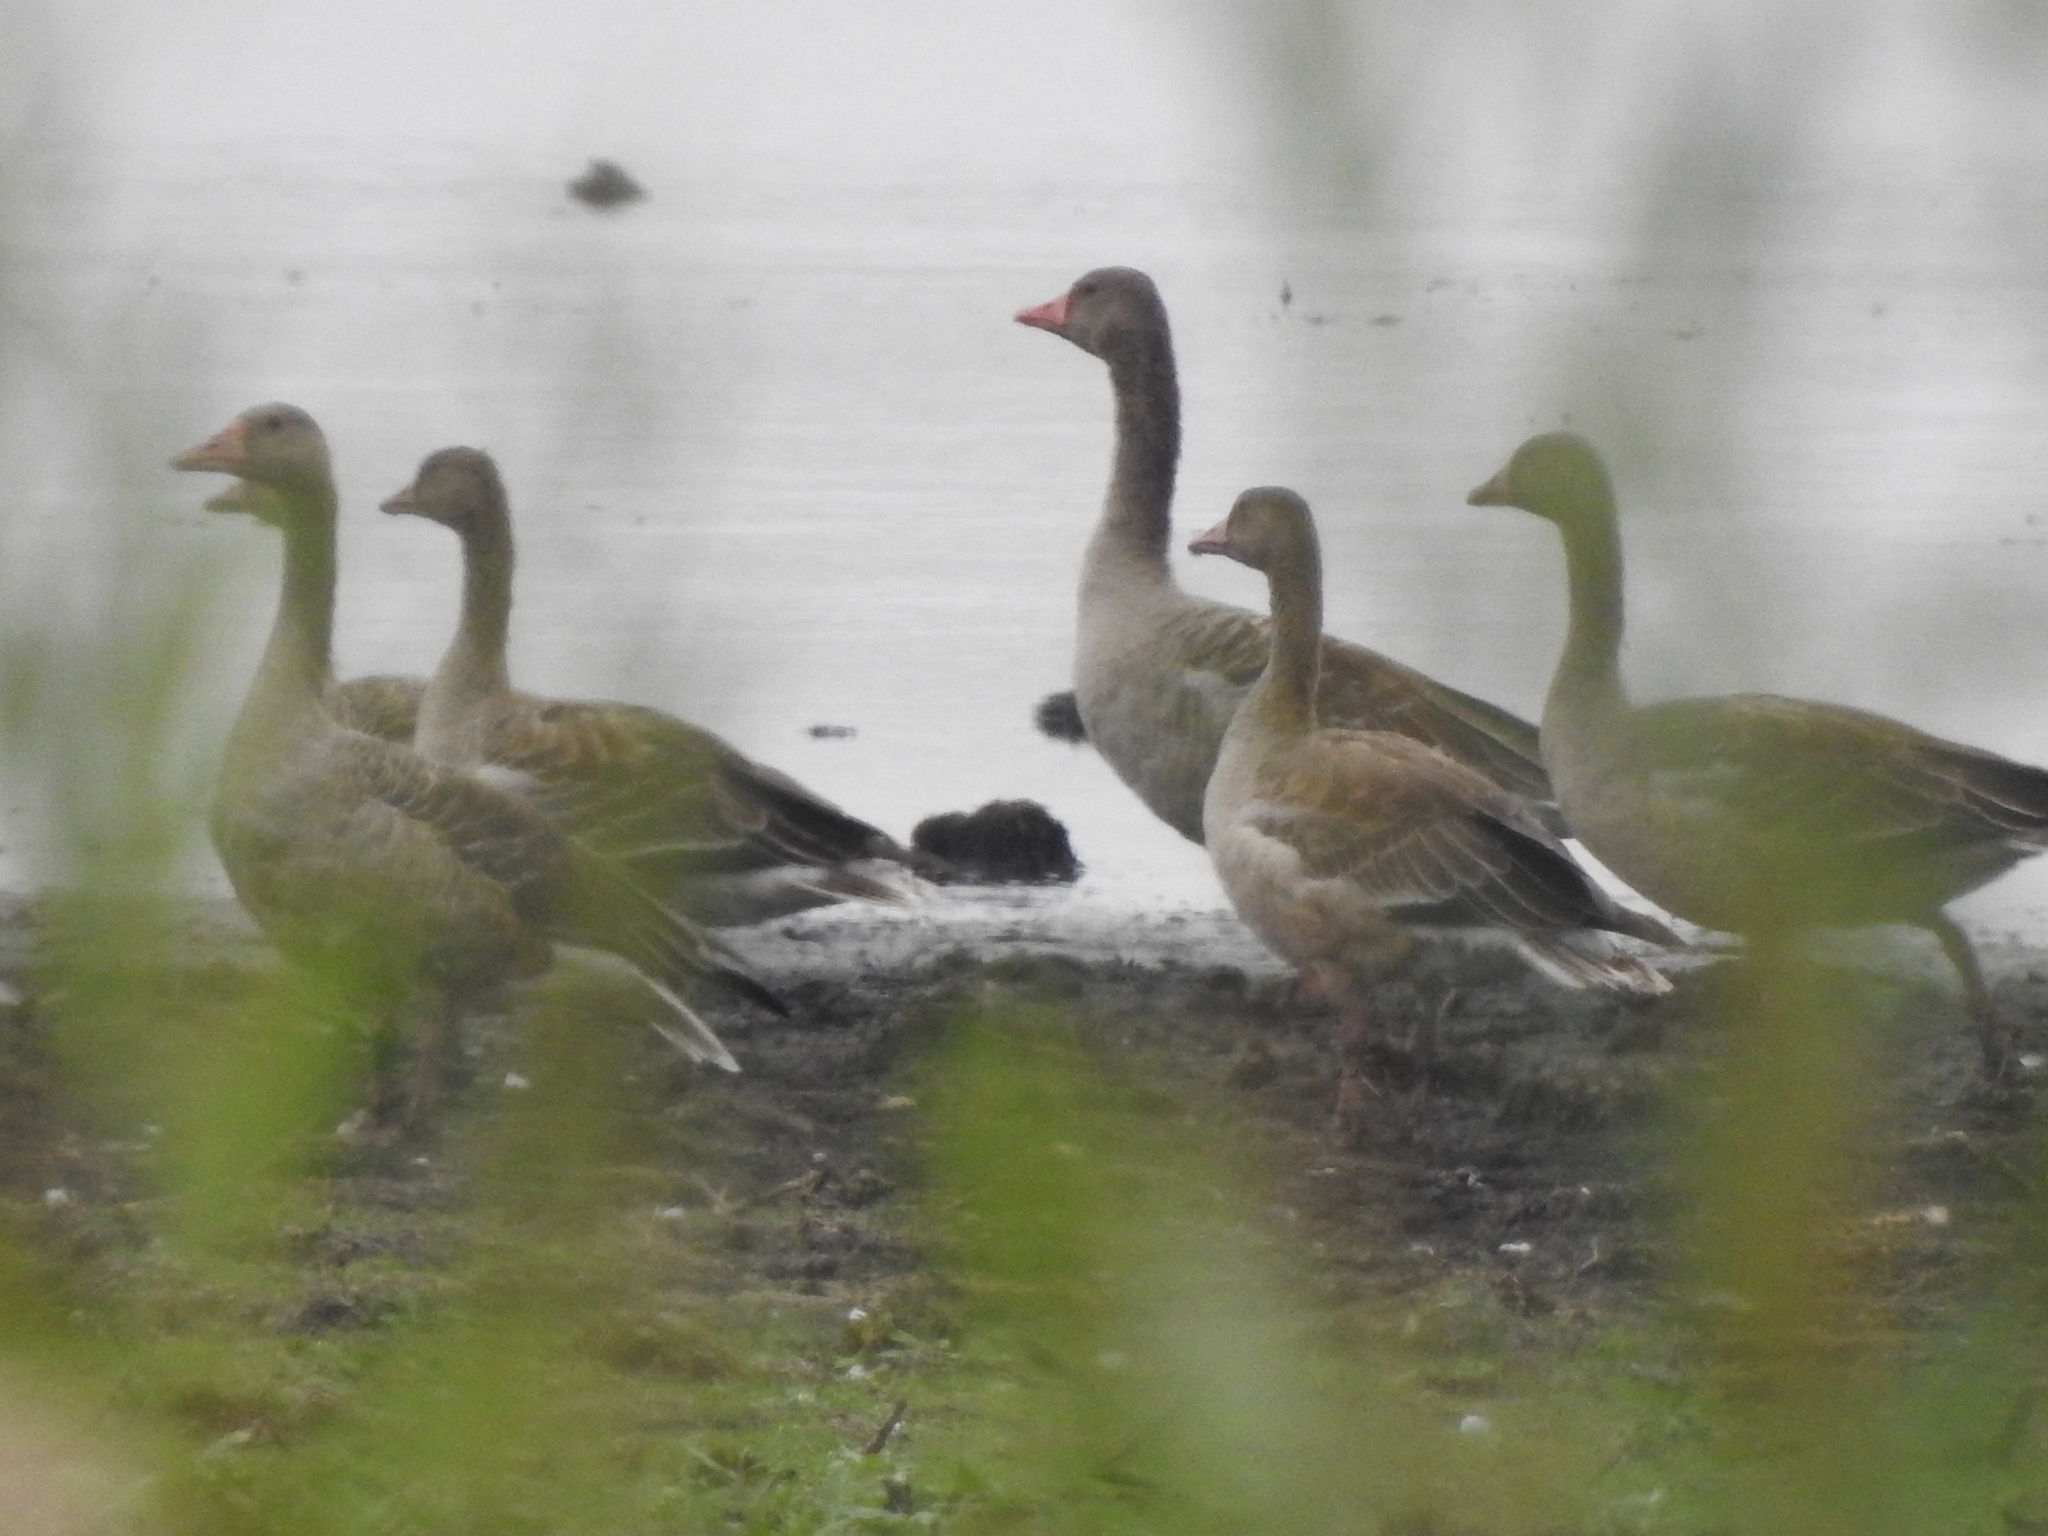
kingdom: Animalia
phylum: Chordata
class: Aves
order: Anseriformes
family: Anatidae
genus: Anser
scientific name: Anser anser
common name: Greylag goose
